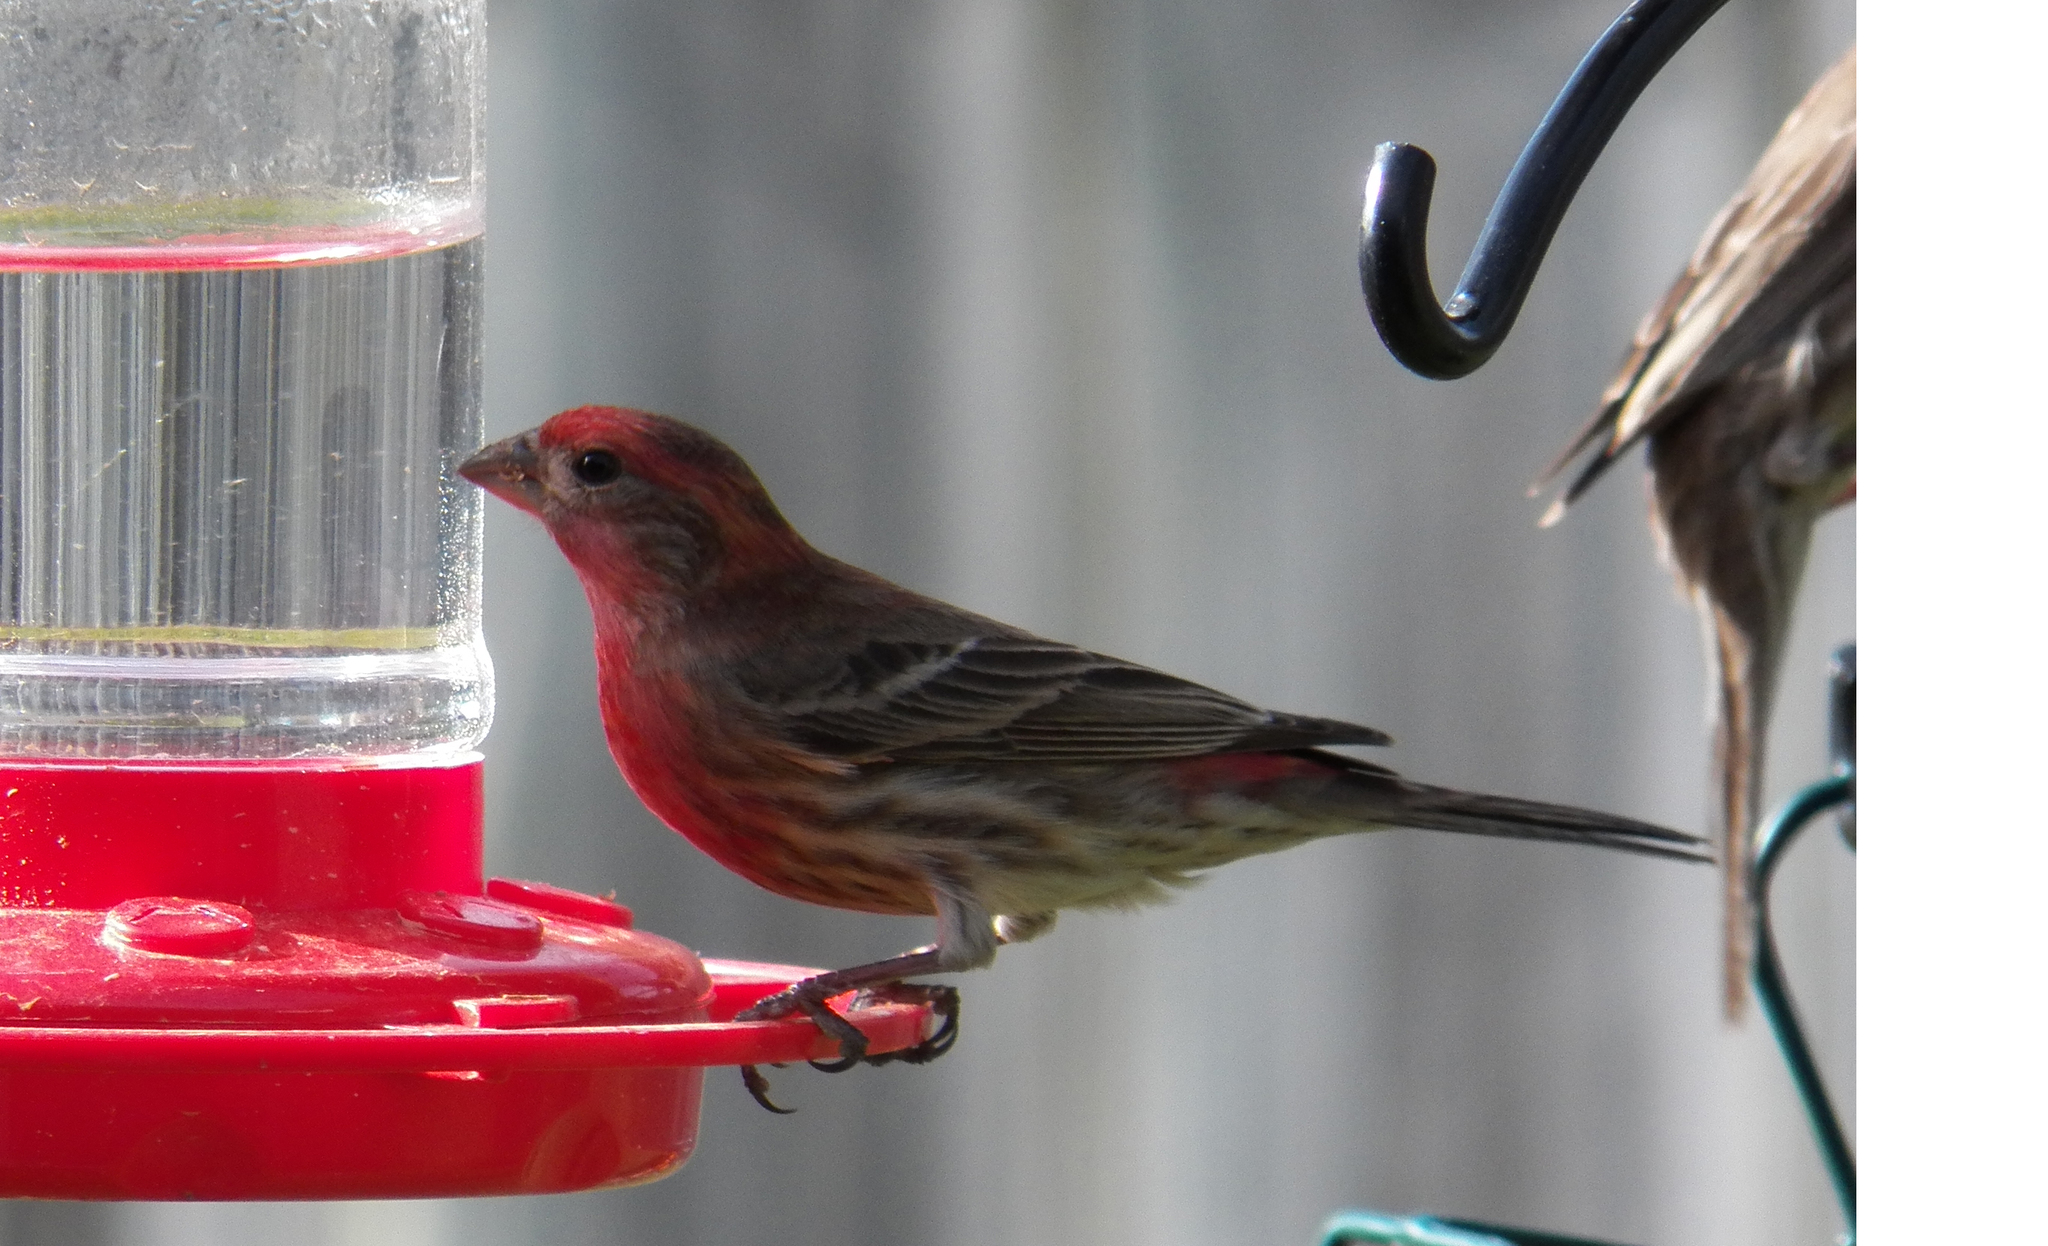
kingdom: Animalia
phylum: Chordata
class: Aves
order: Passeriformes
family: Fringillidae
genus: Haemorhous
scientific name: Haemorhous mexicanus
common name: House finch
